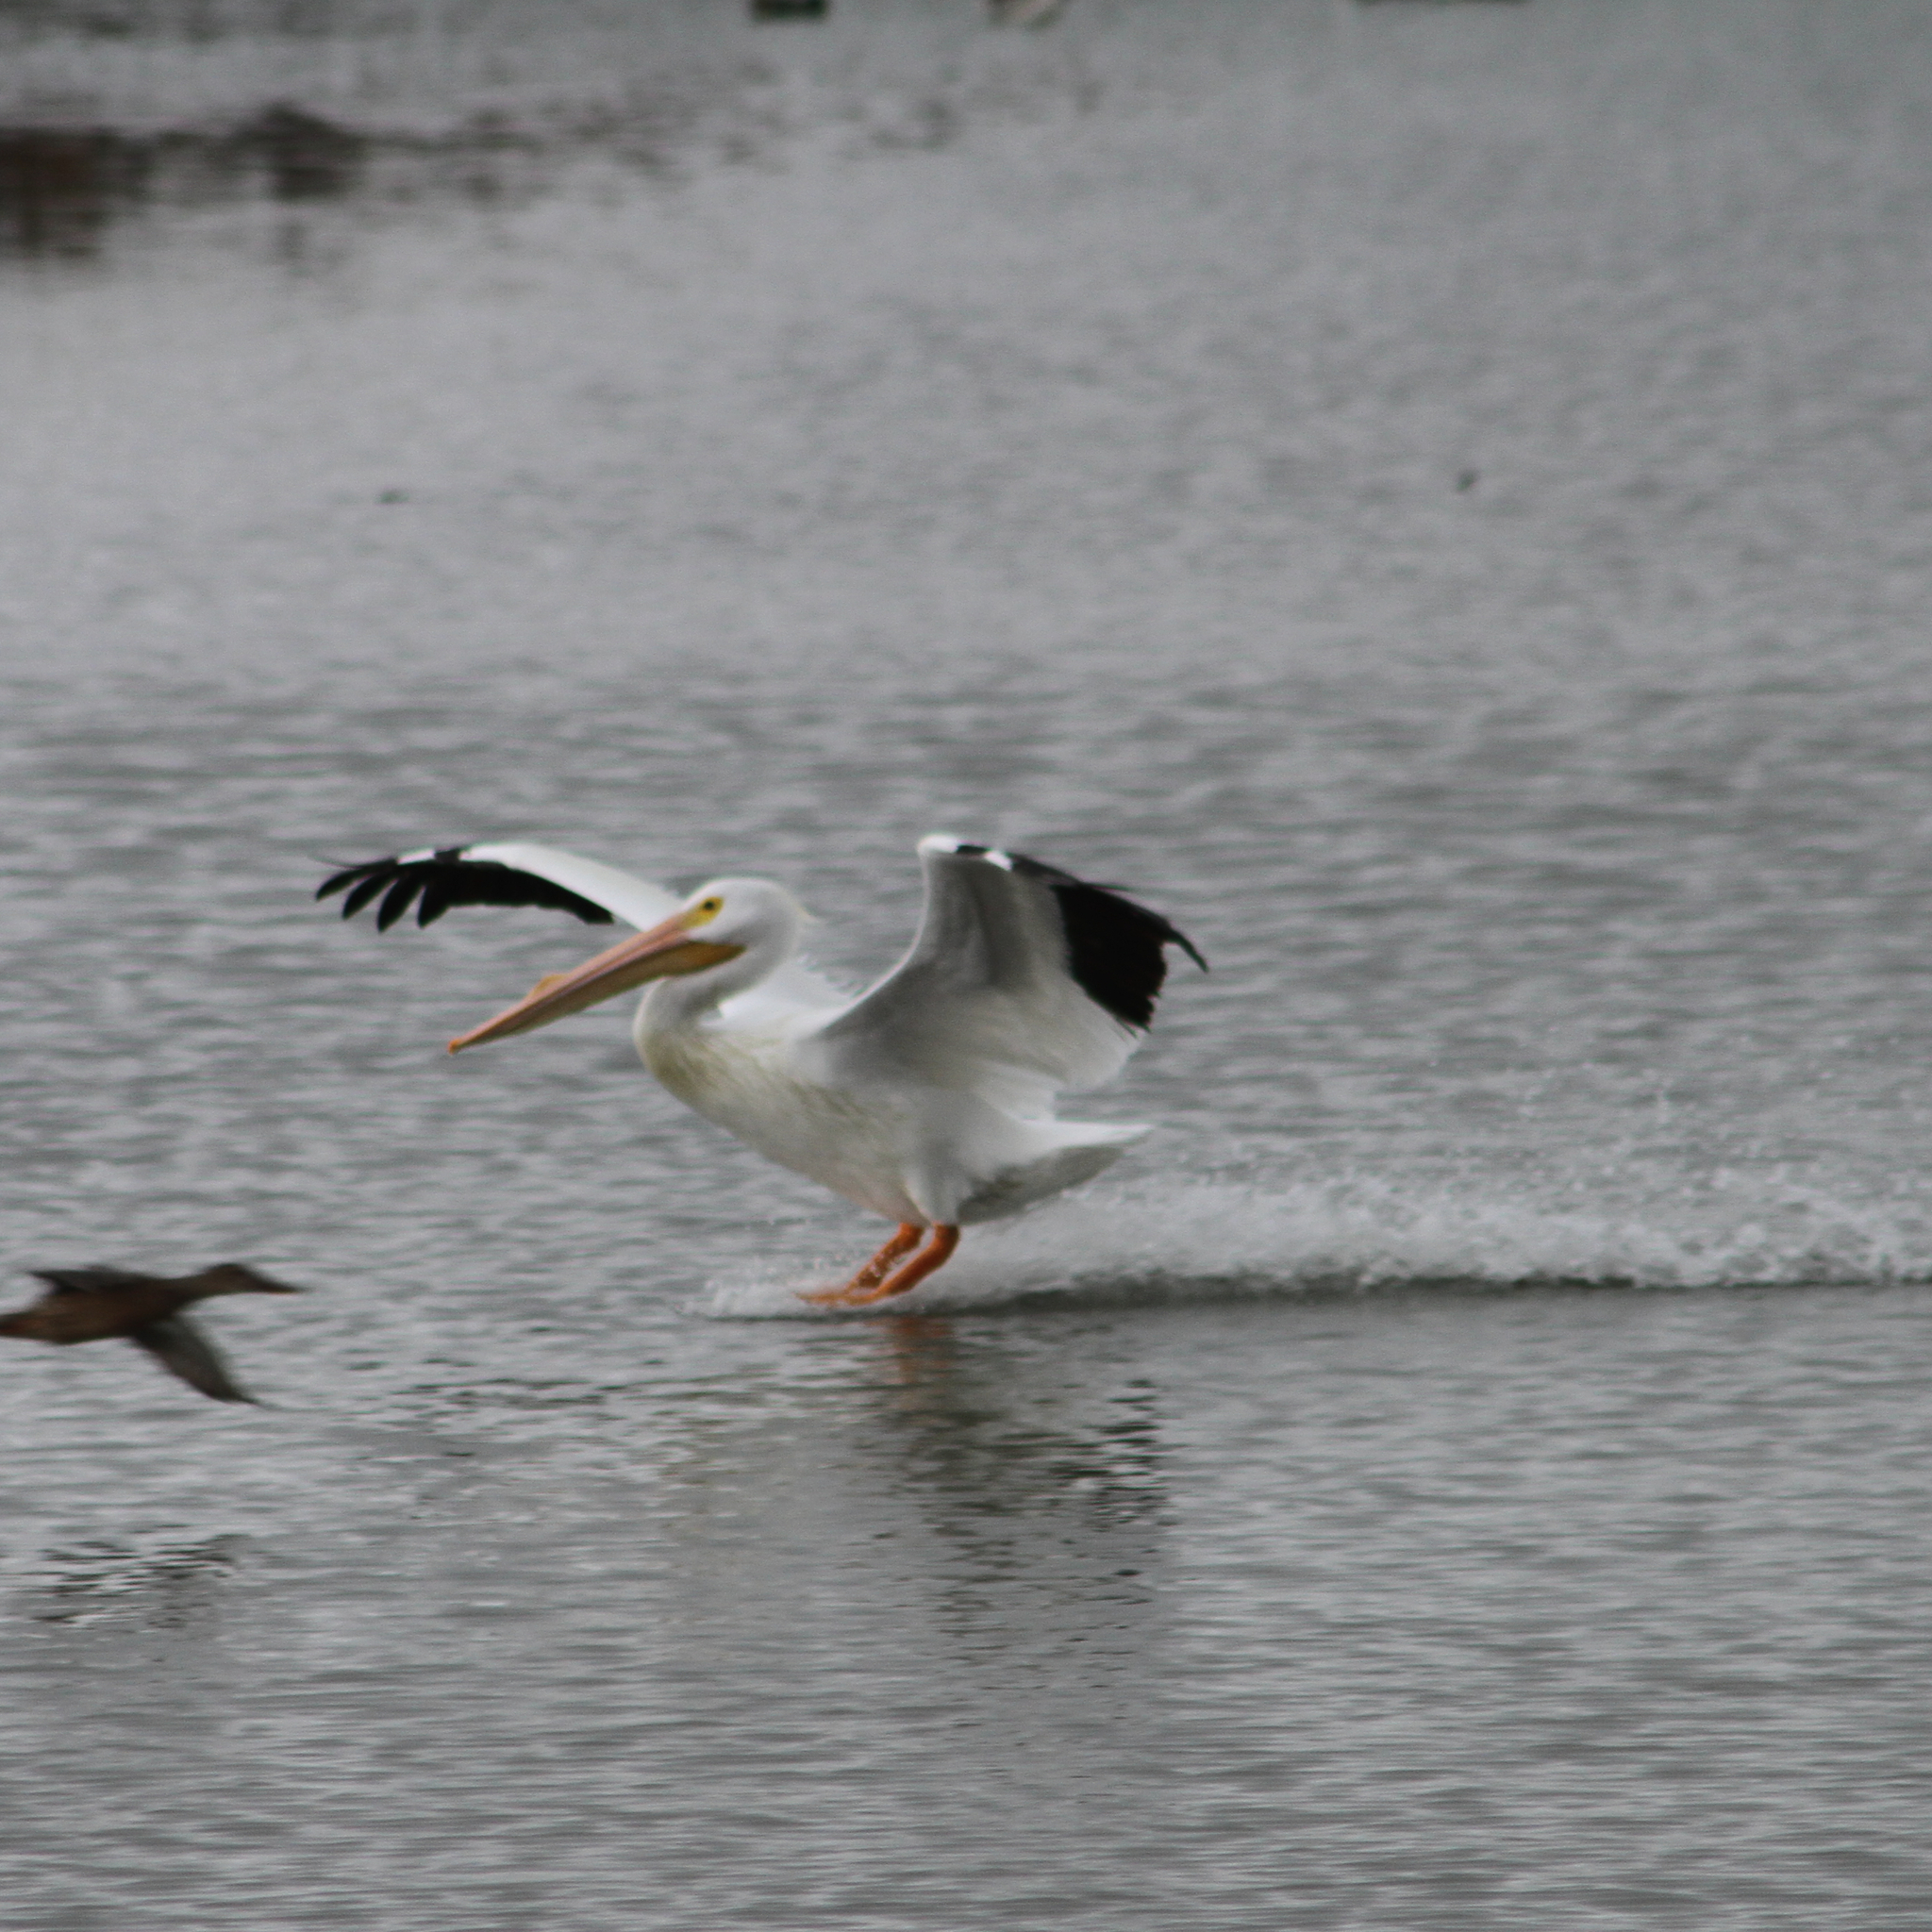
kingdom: Animalia
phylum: Chordata
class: Aves
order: Pelecaniformes
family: Pelecanidae
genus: Pelecanus
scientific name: Pelecanus erythrorhynchos
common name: American white pelican
